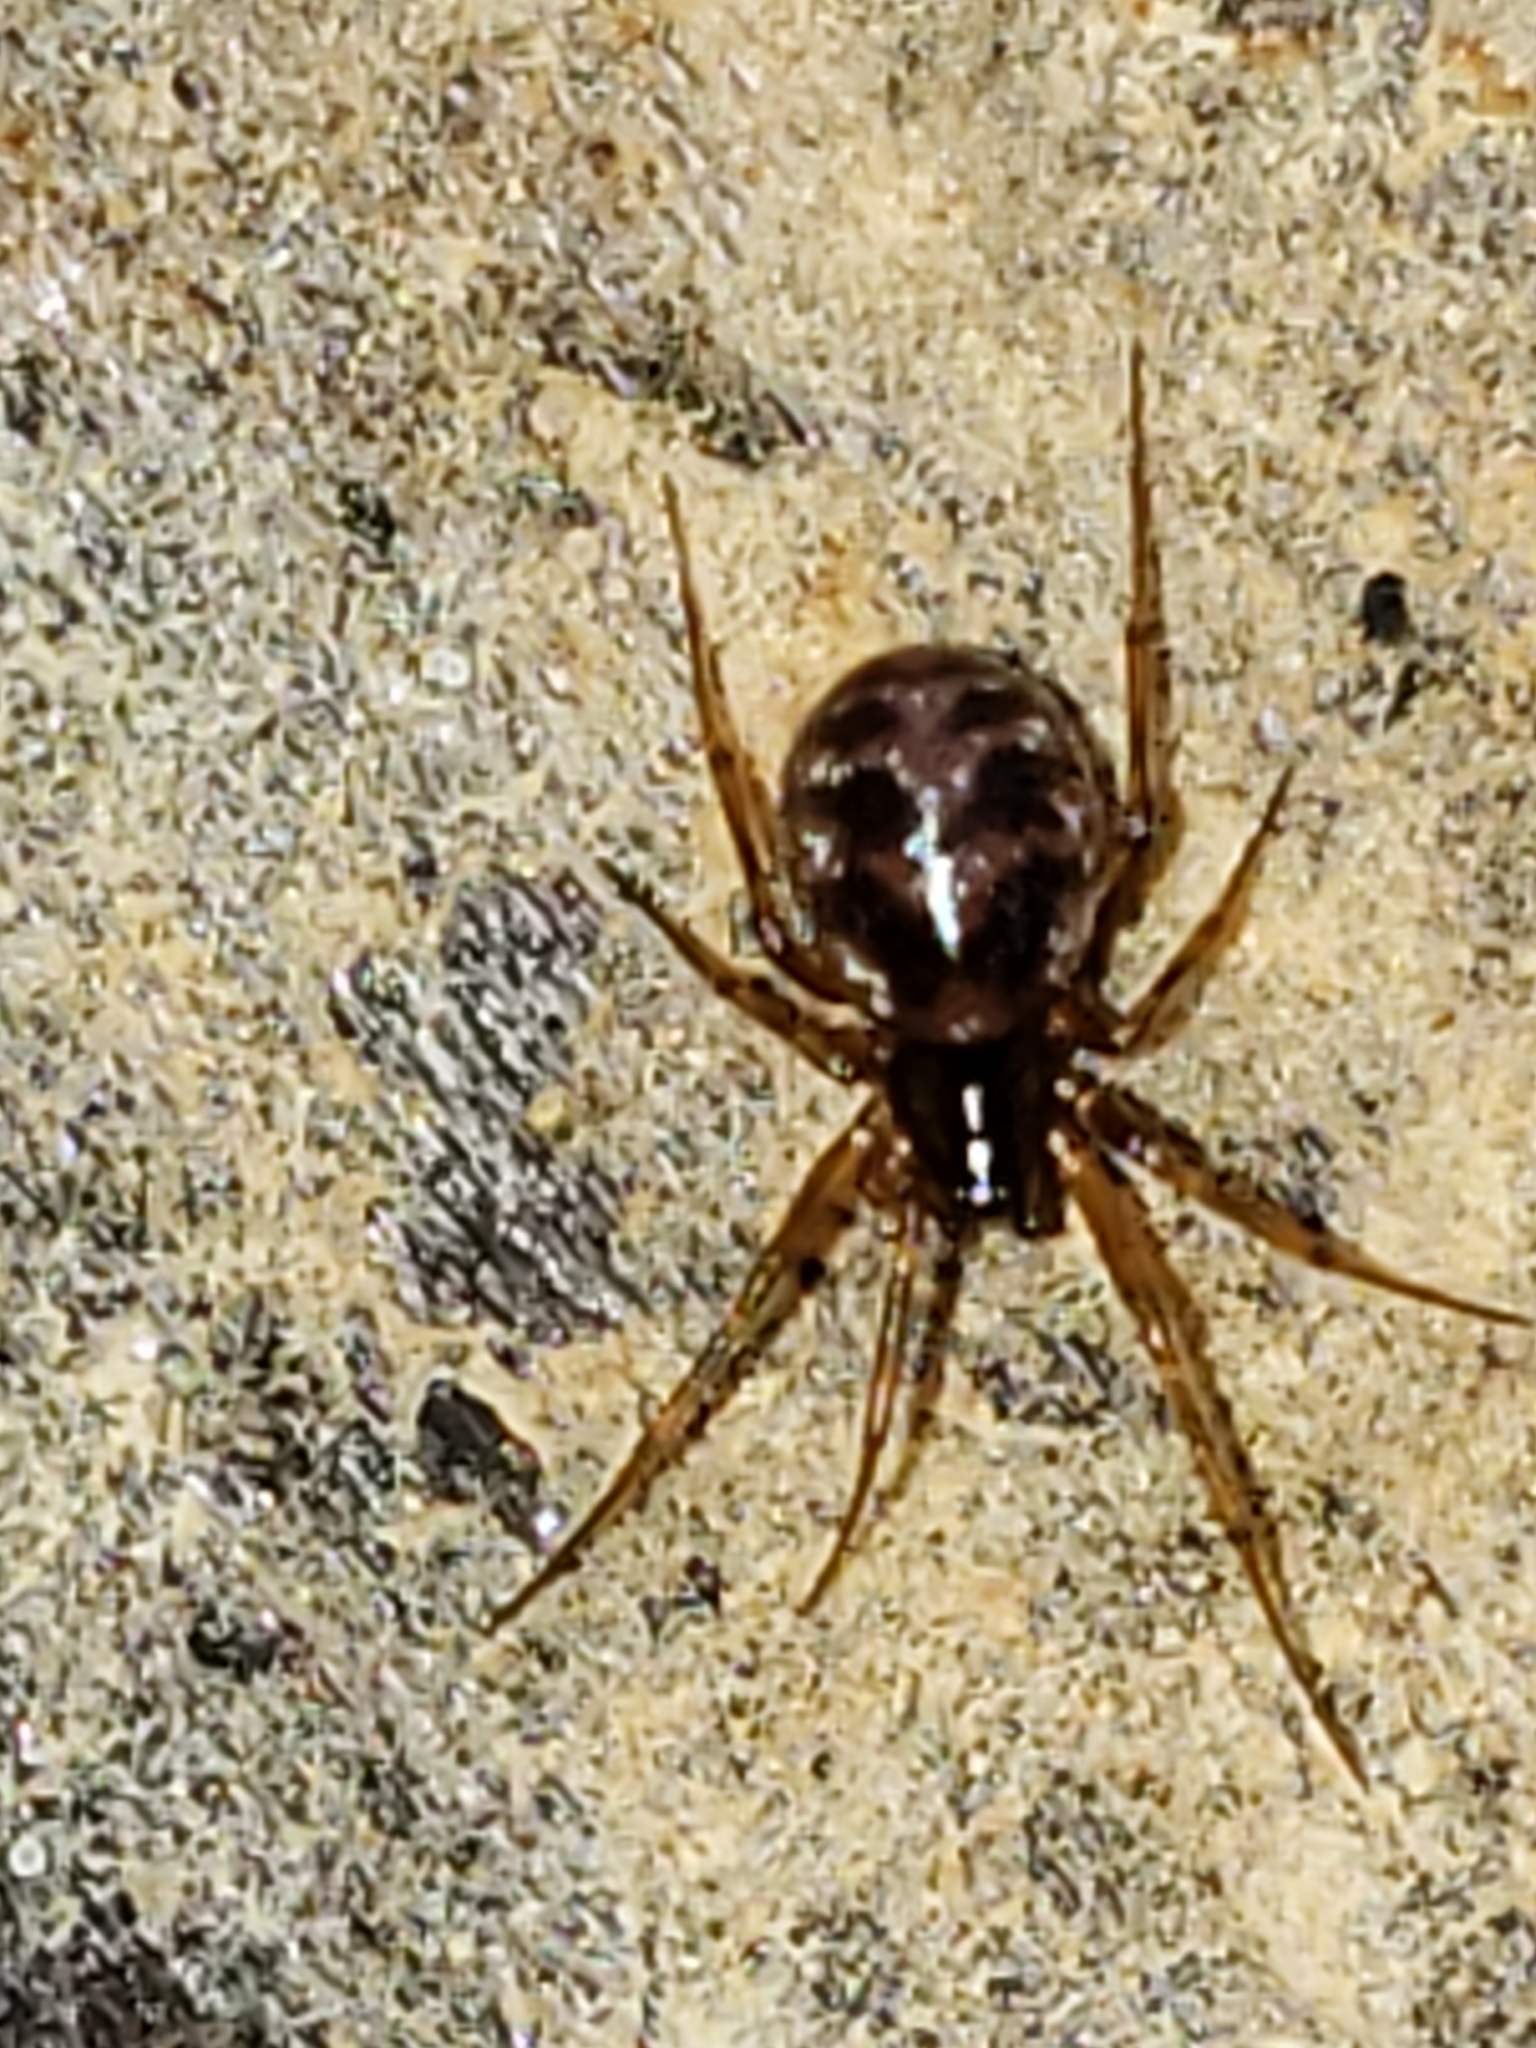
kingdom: Animalia
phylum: Arthropoda
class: Arachnida
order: Araneae
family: Theridiidae
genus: Steatoda
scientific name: Steatoda triangulosa
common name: Triangulate bud spider
